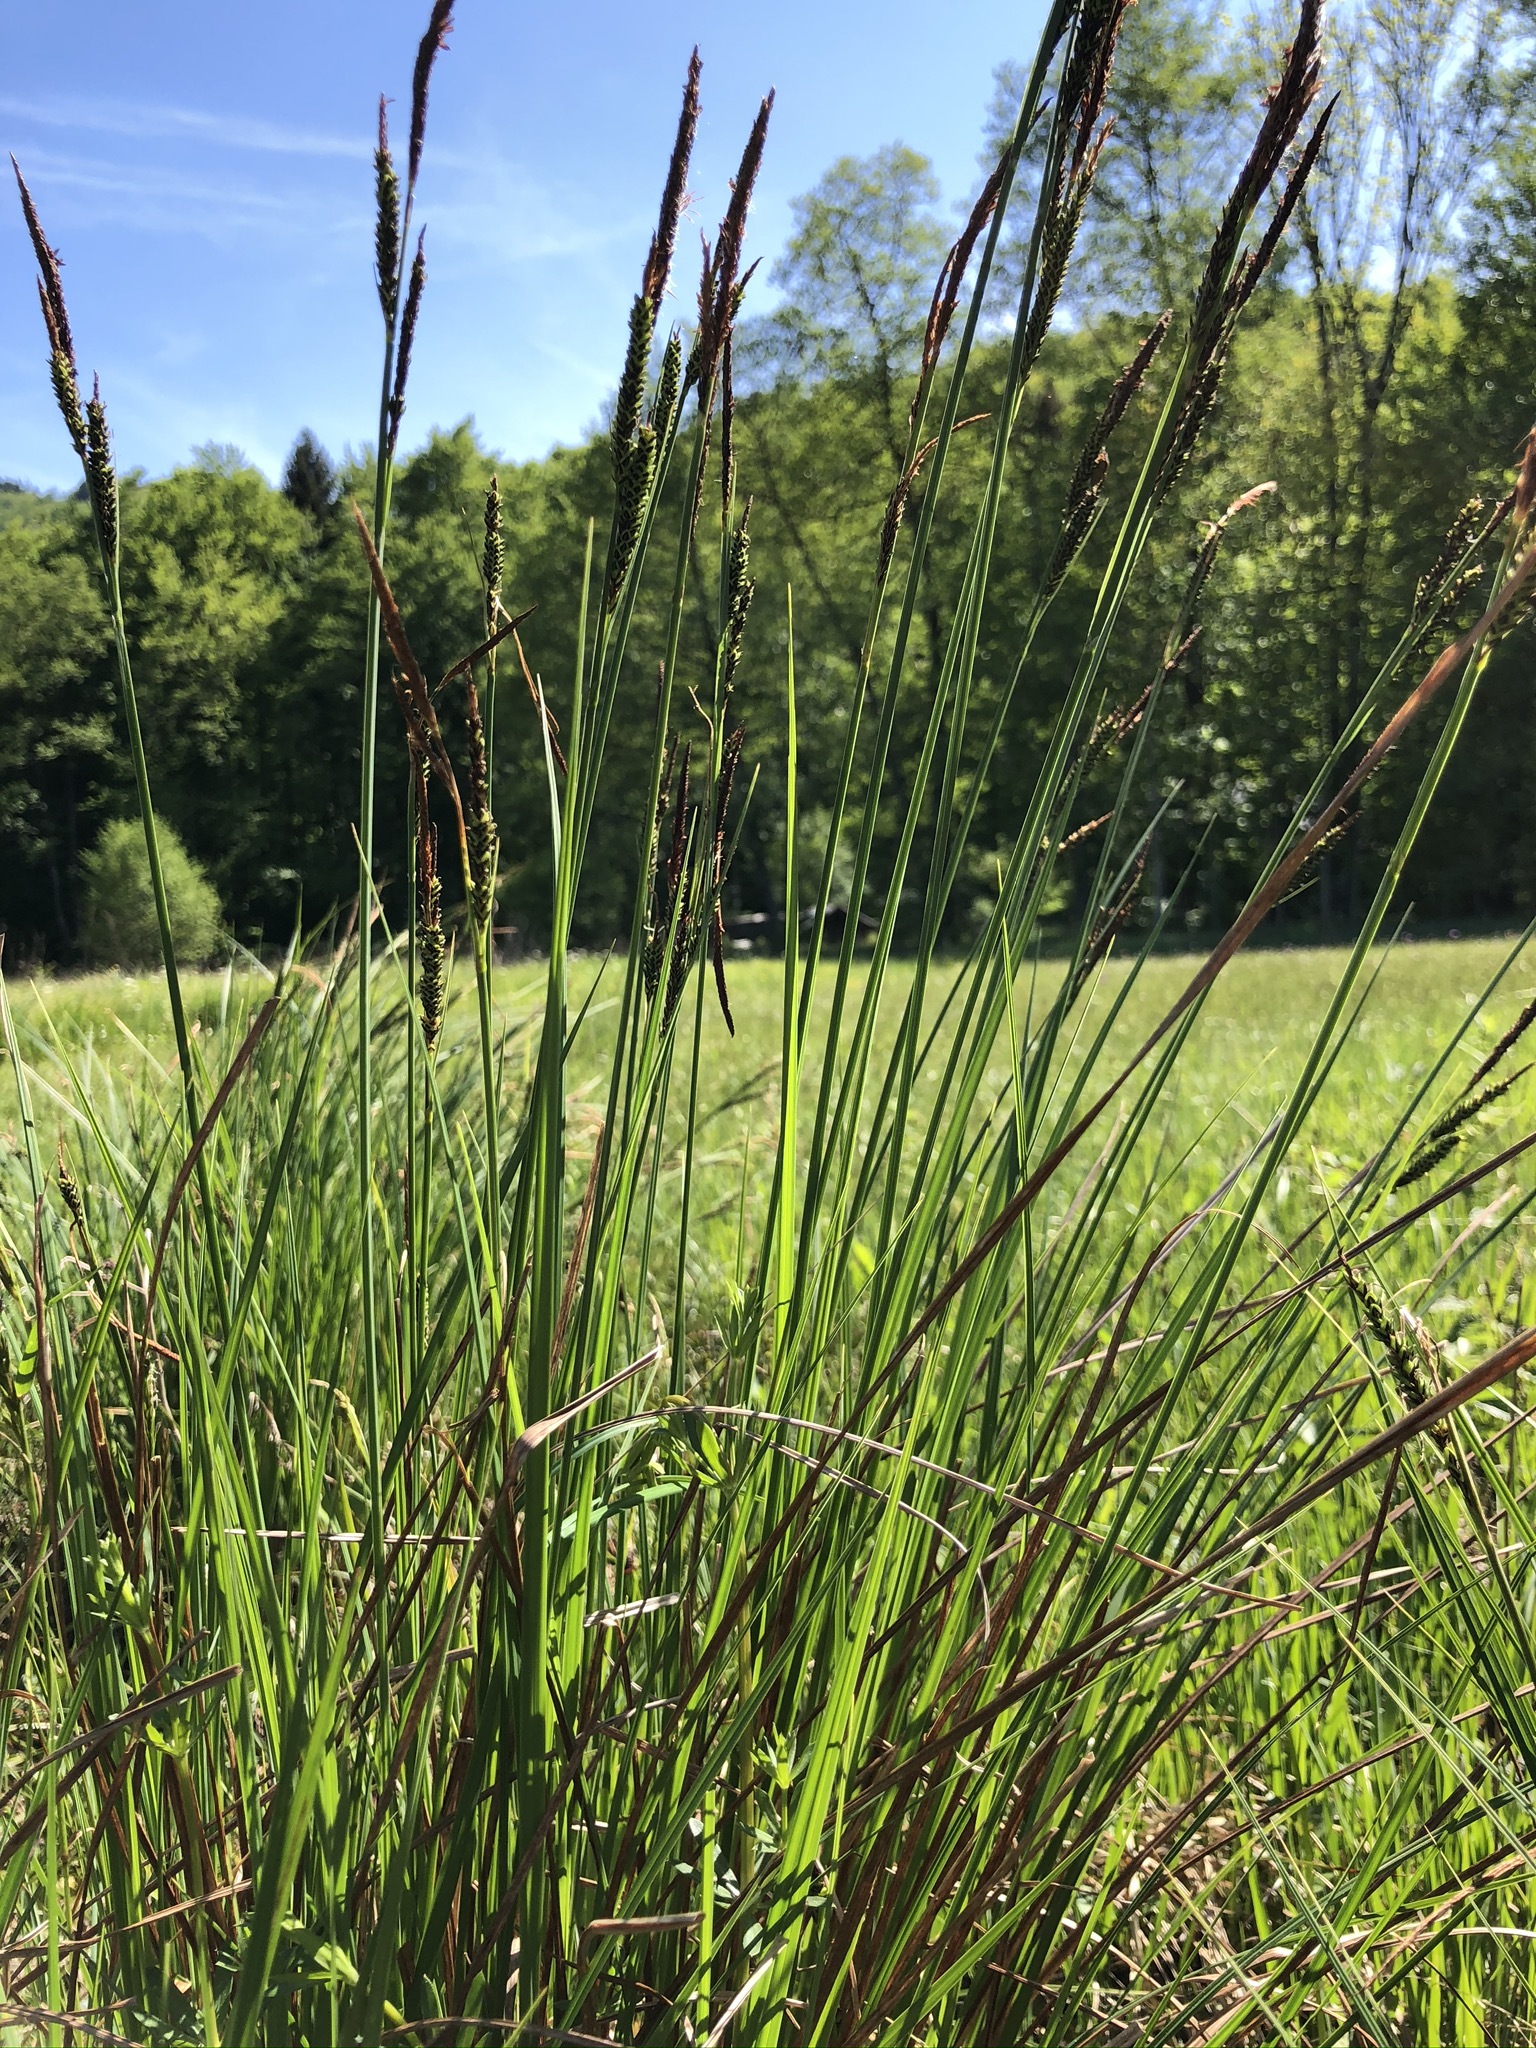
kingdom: Plantae
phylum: Tracheophyta
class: Liliopsida
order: Poales
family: Cyperaceae
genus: Carex
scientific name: Carex elata
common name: Tufted sedge
